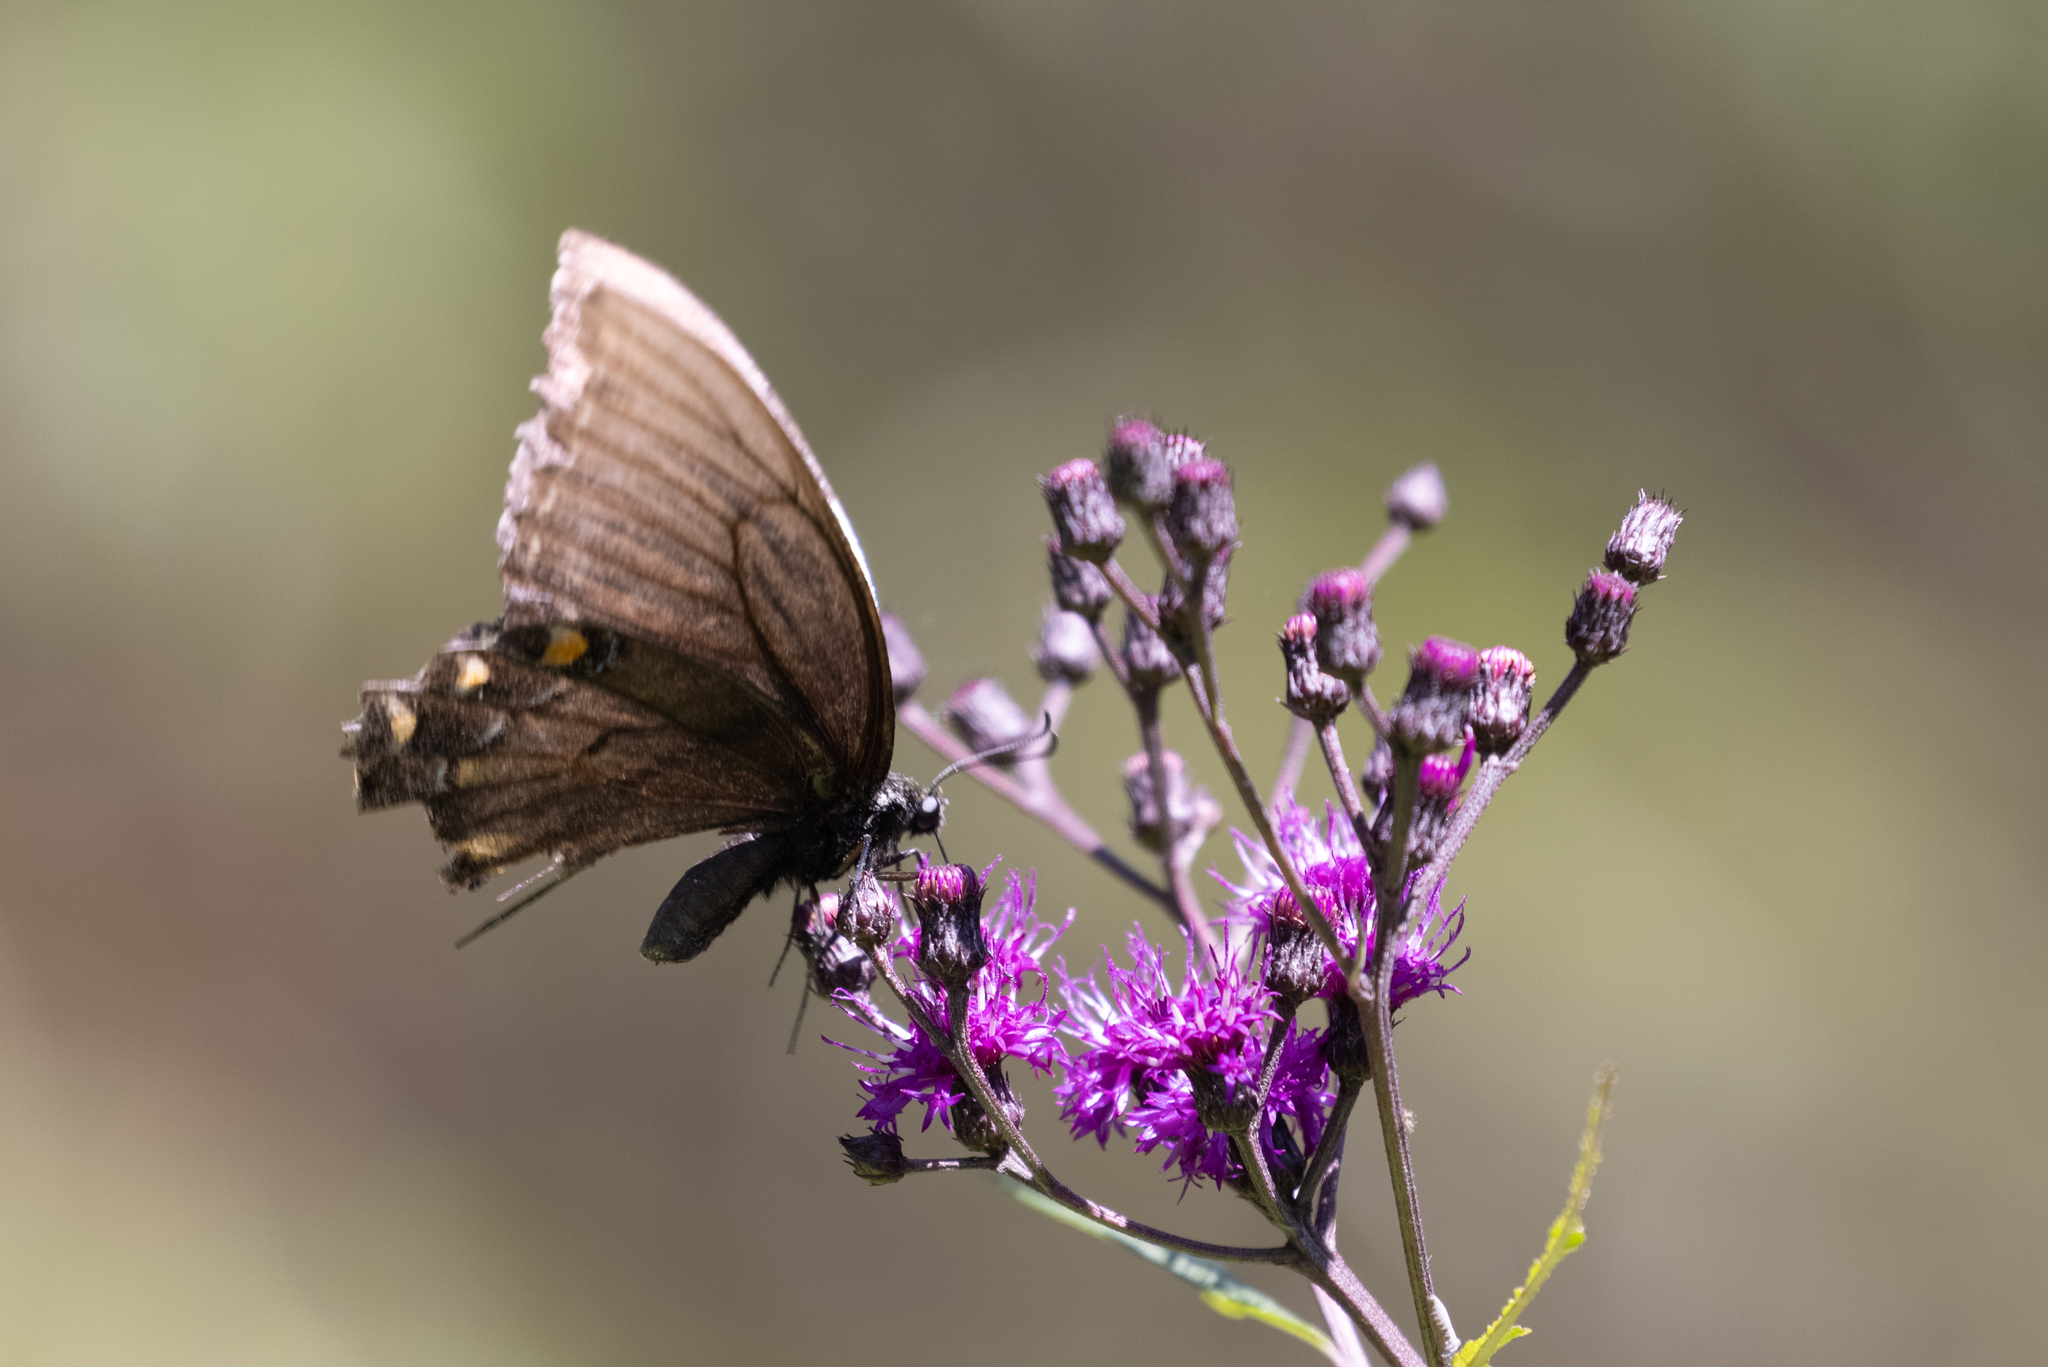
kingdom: Animalia
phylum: Arthropoda
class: Insecta
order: Lepidoptera
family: Papilionidae
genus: Papilio
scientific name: Papilio glaucus
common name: Tiger swallowtail
